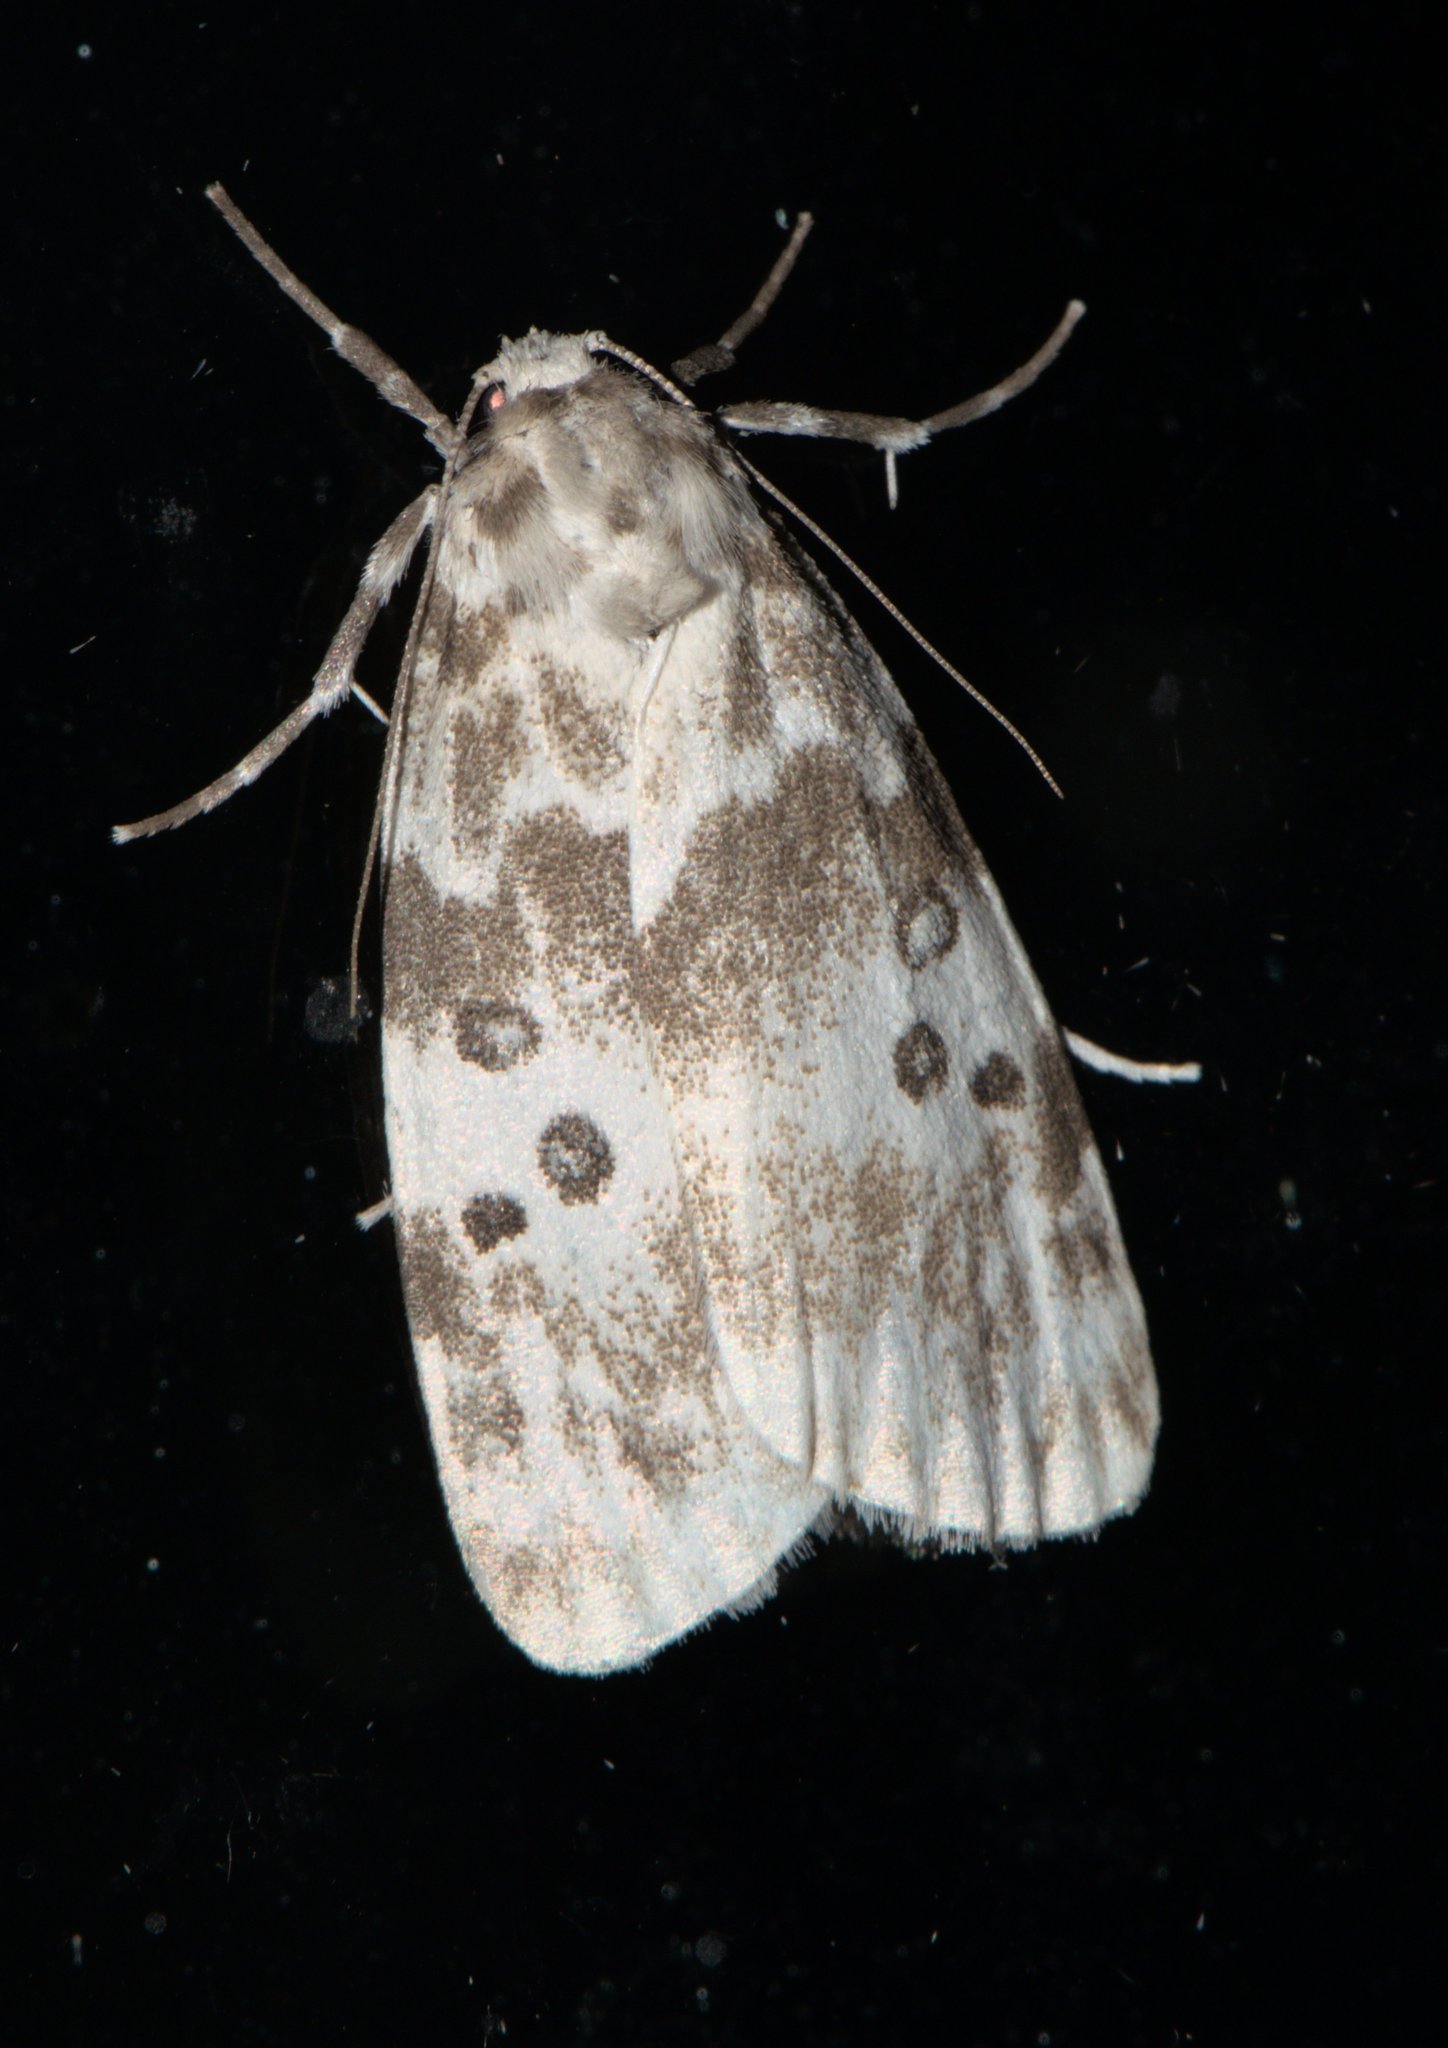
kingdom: Animalia
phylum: Arthropoda
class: Insecta
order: Lepidoptera
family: Erebidae
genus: Cyana
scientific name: Cyana detrita
